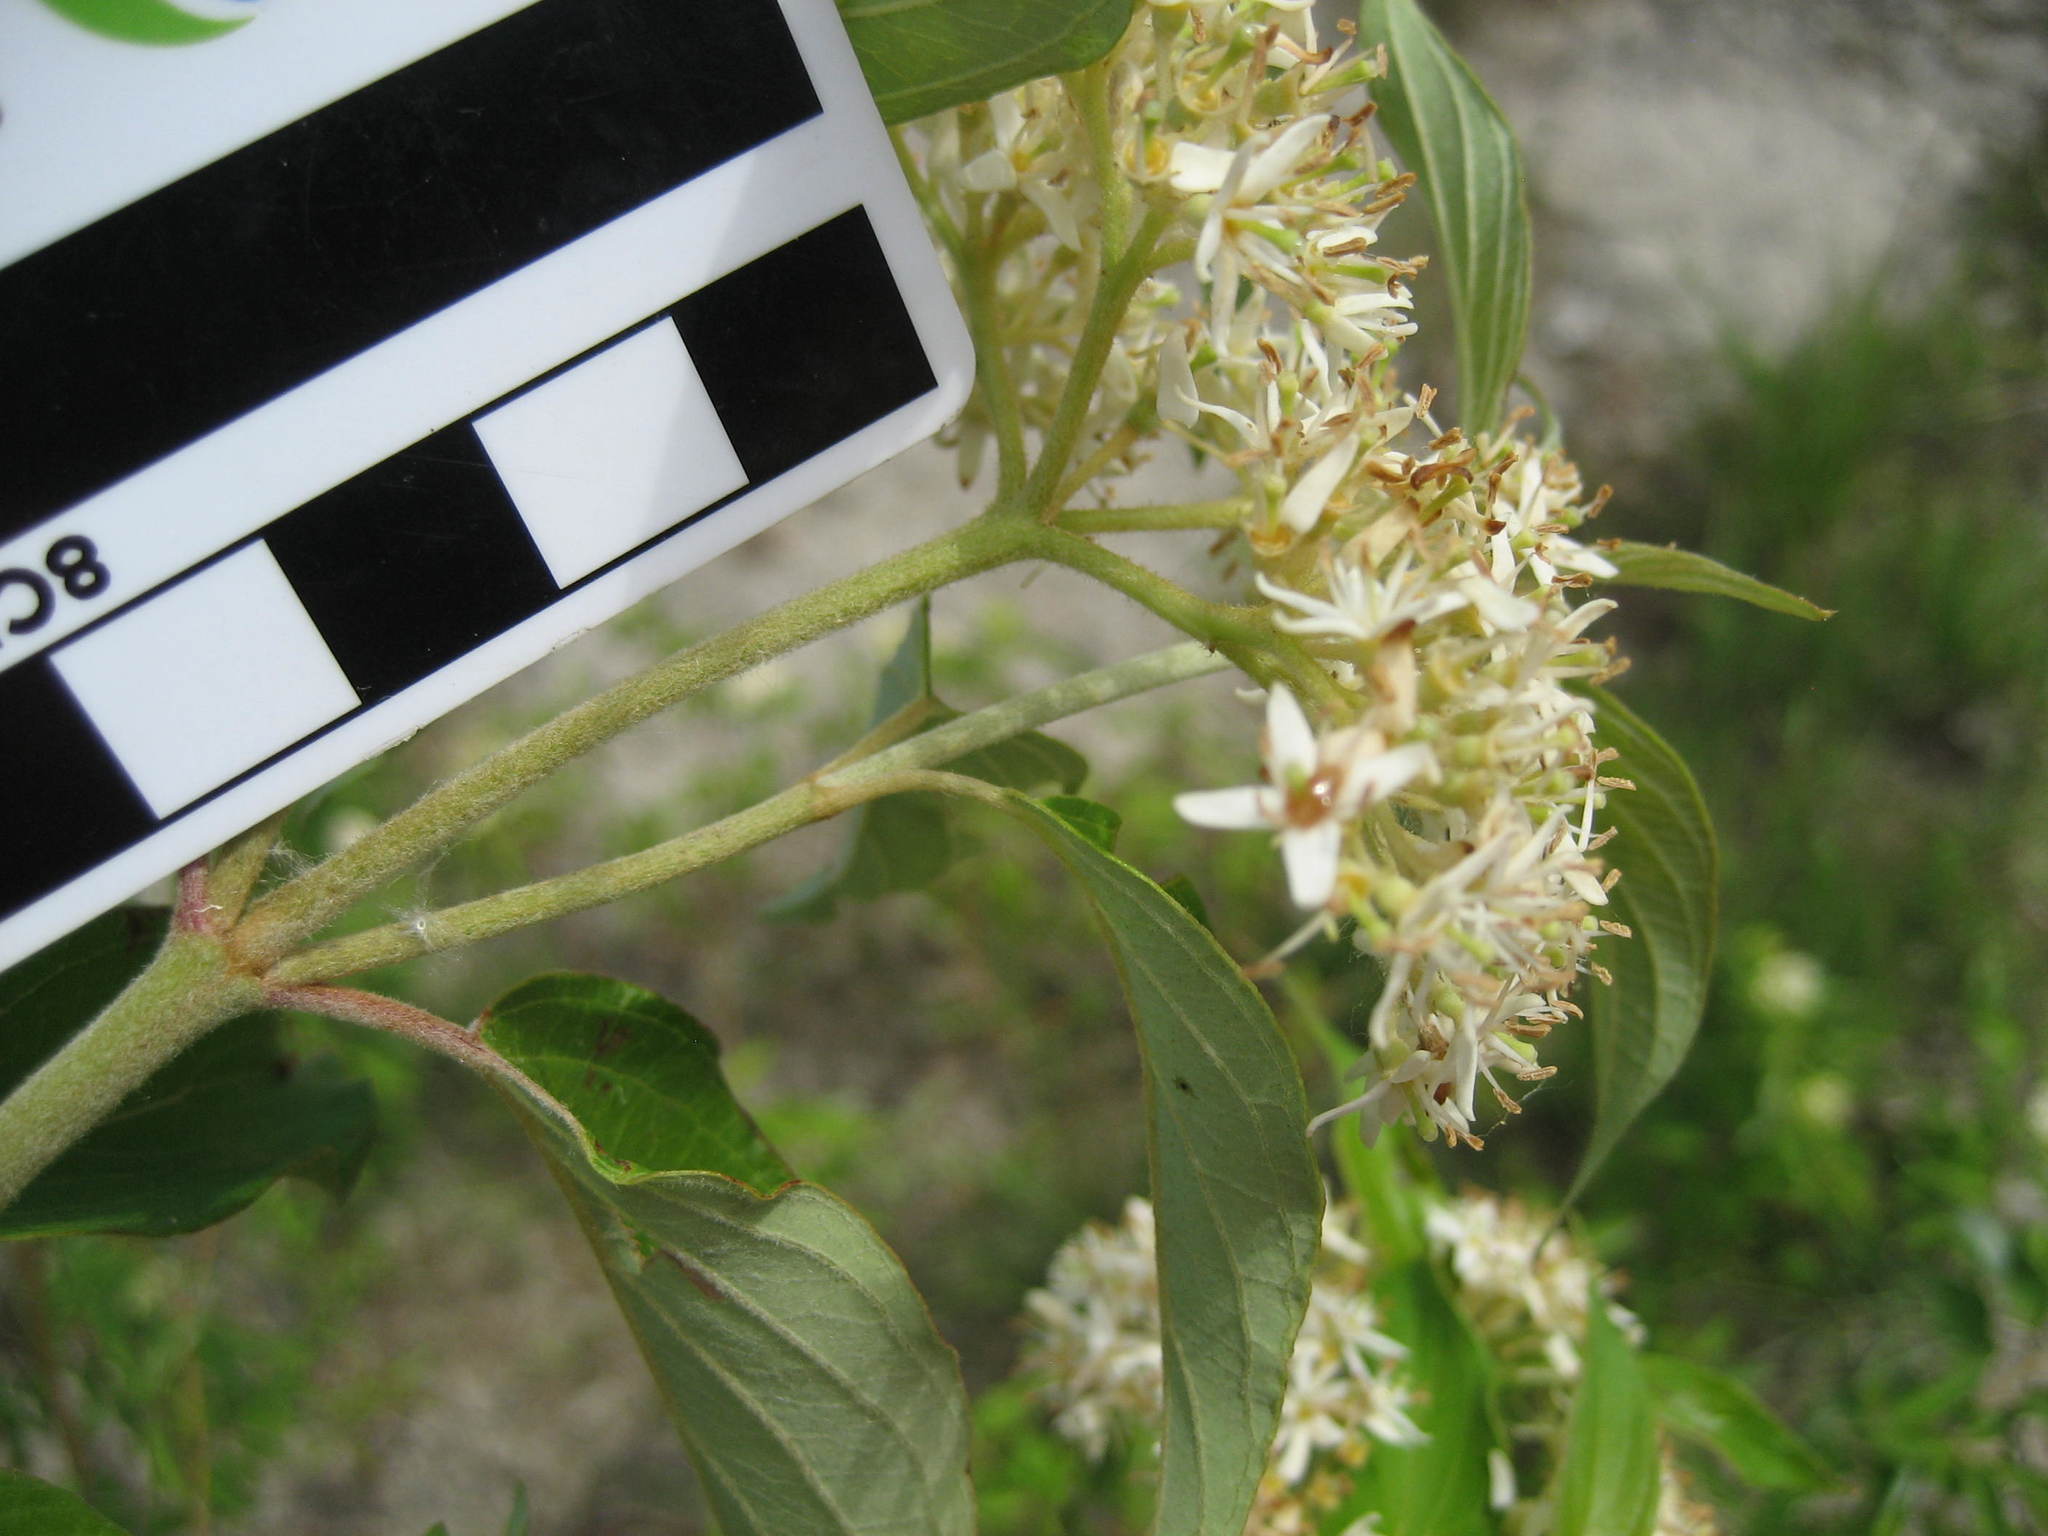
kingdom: Plantae
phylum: Tracheophyta
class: Magnoliopsida
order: Cornales
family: Cornaceae
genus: Cornus
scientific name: Cornus obliqua
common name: Pale dogwood
